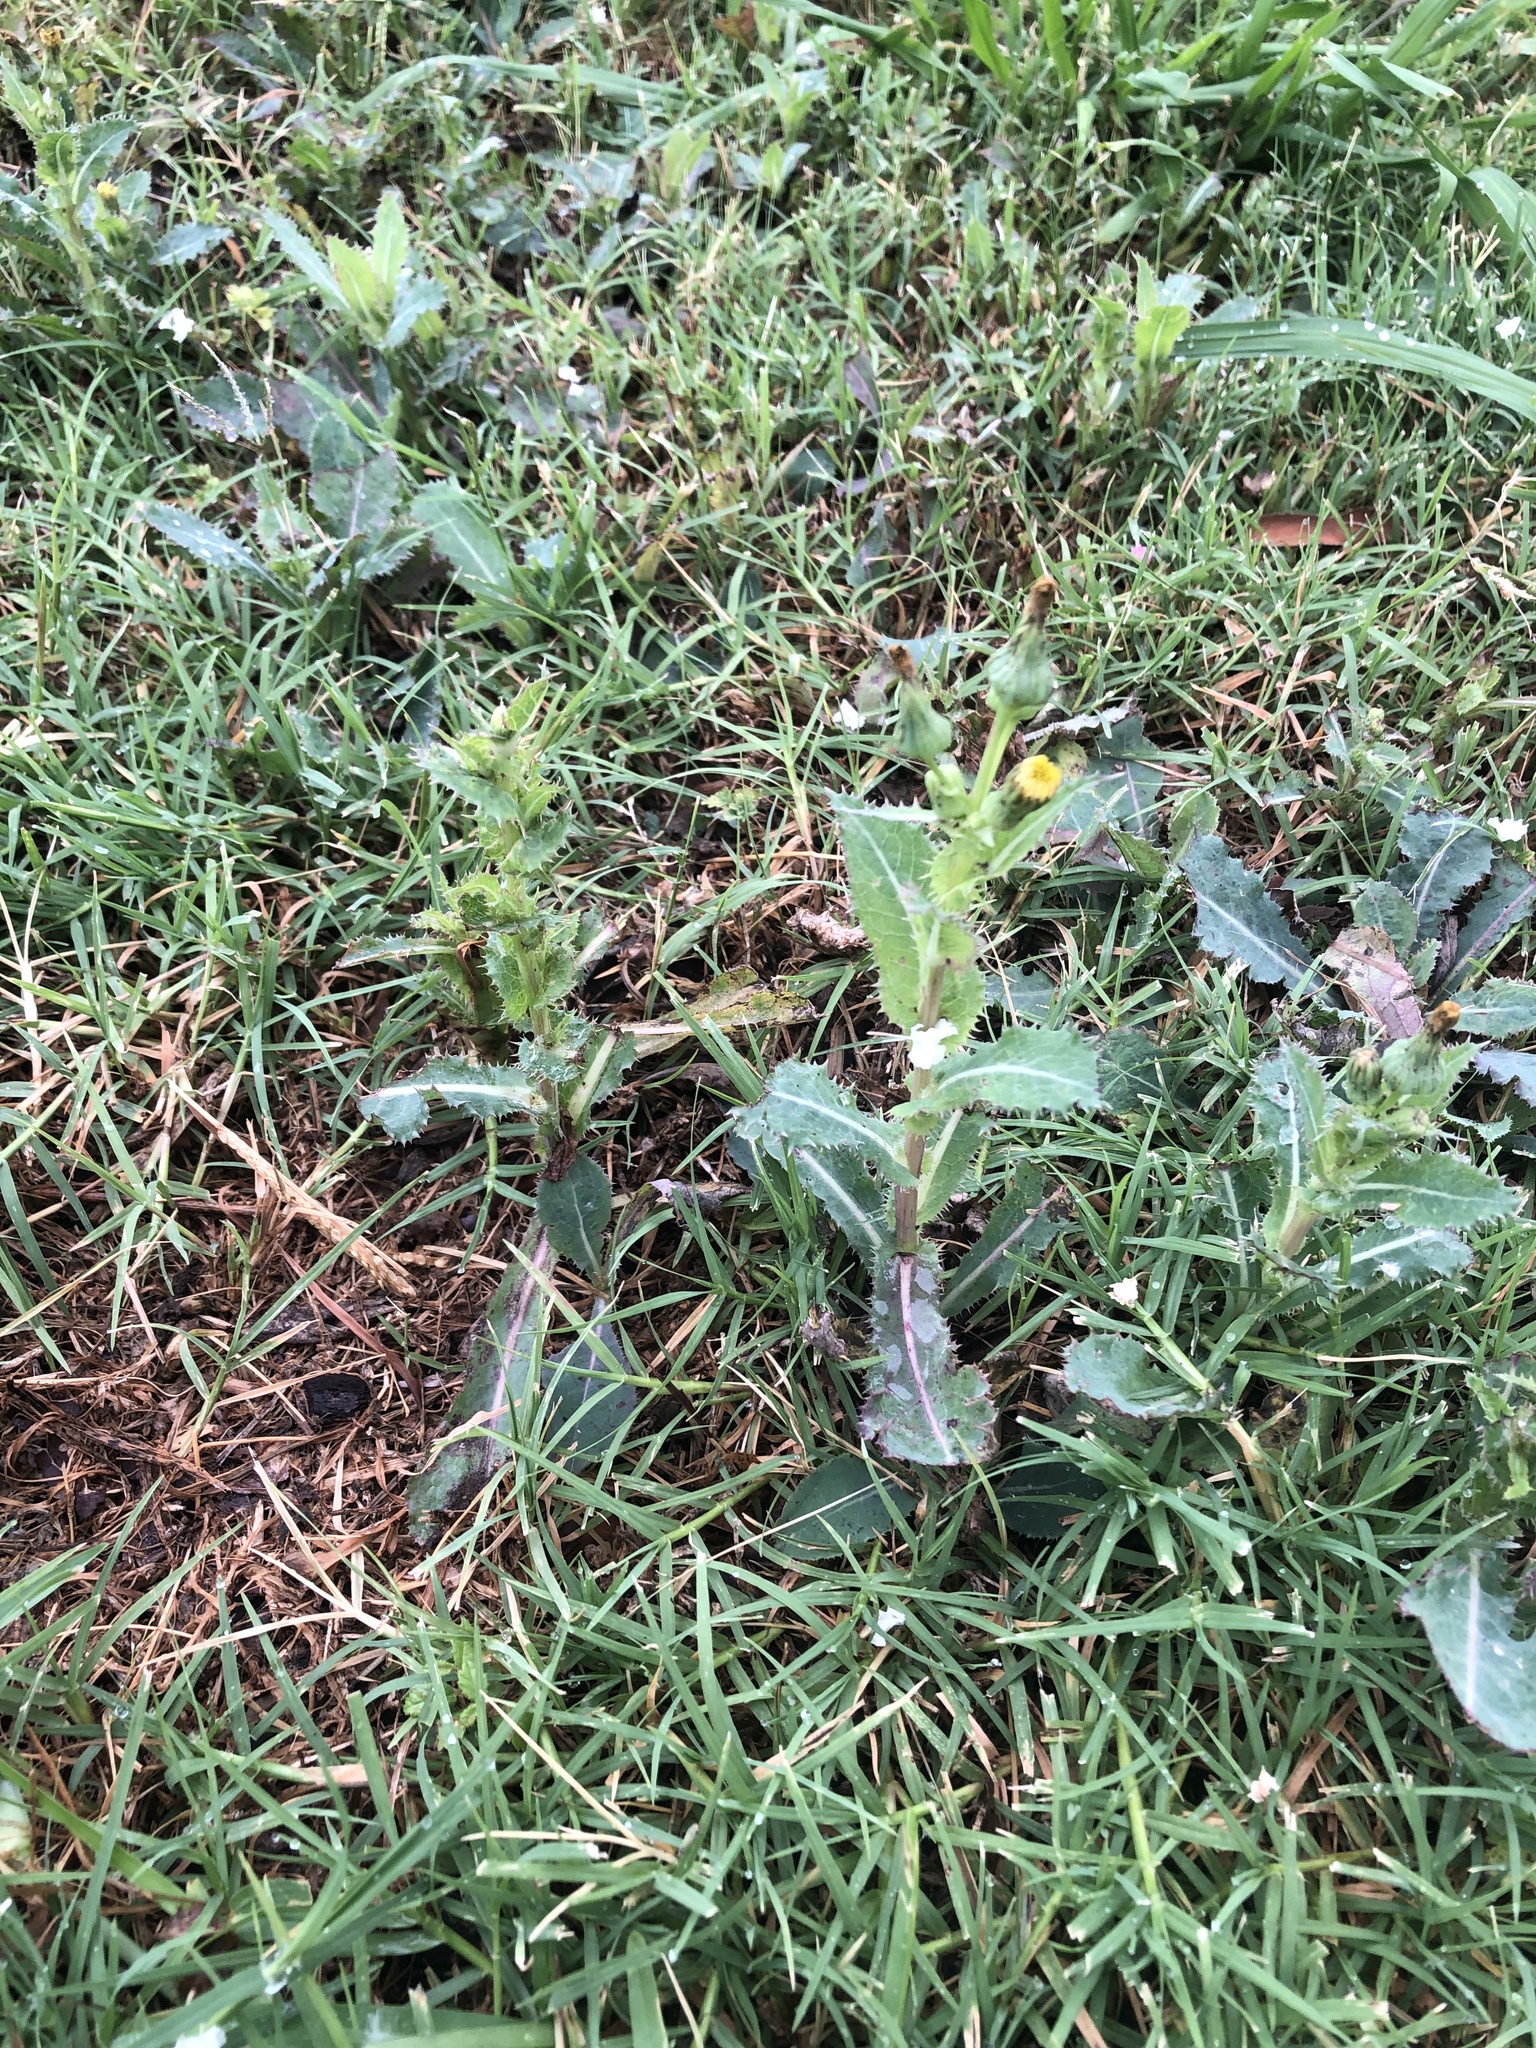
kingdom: Plantae
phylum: Tracheophyta
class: Magnoliopsida
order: Asterales
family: Asteraceae
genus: Sonchus
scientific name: Sonchus asper
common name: Prickly sow-thistle
